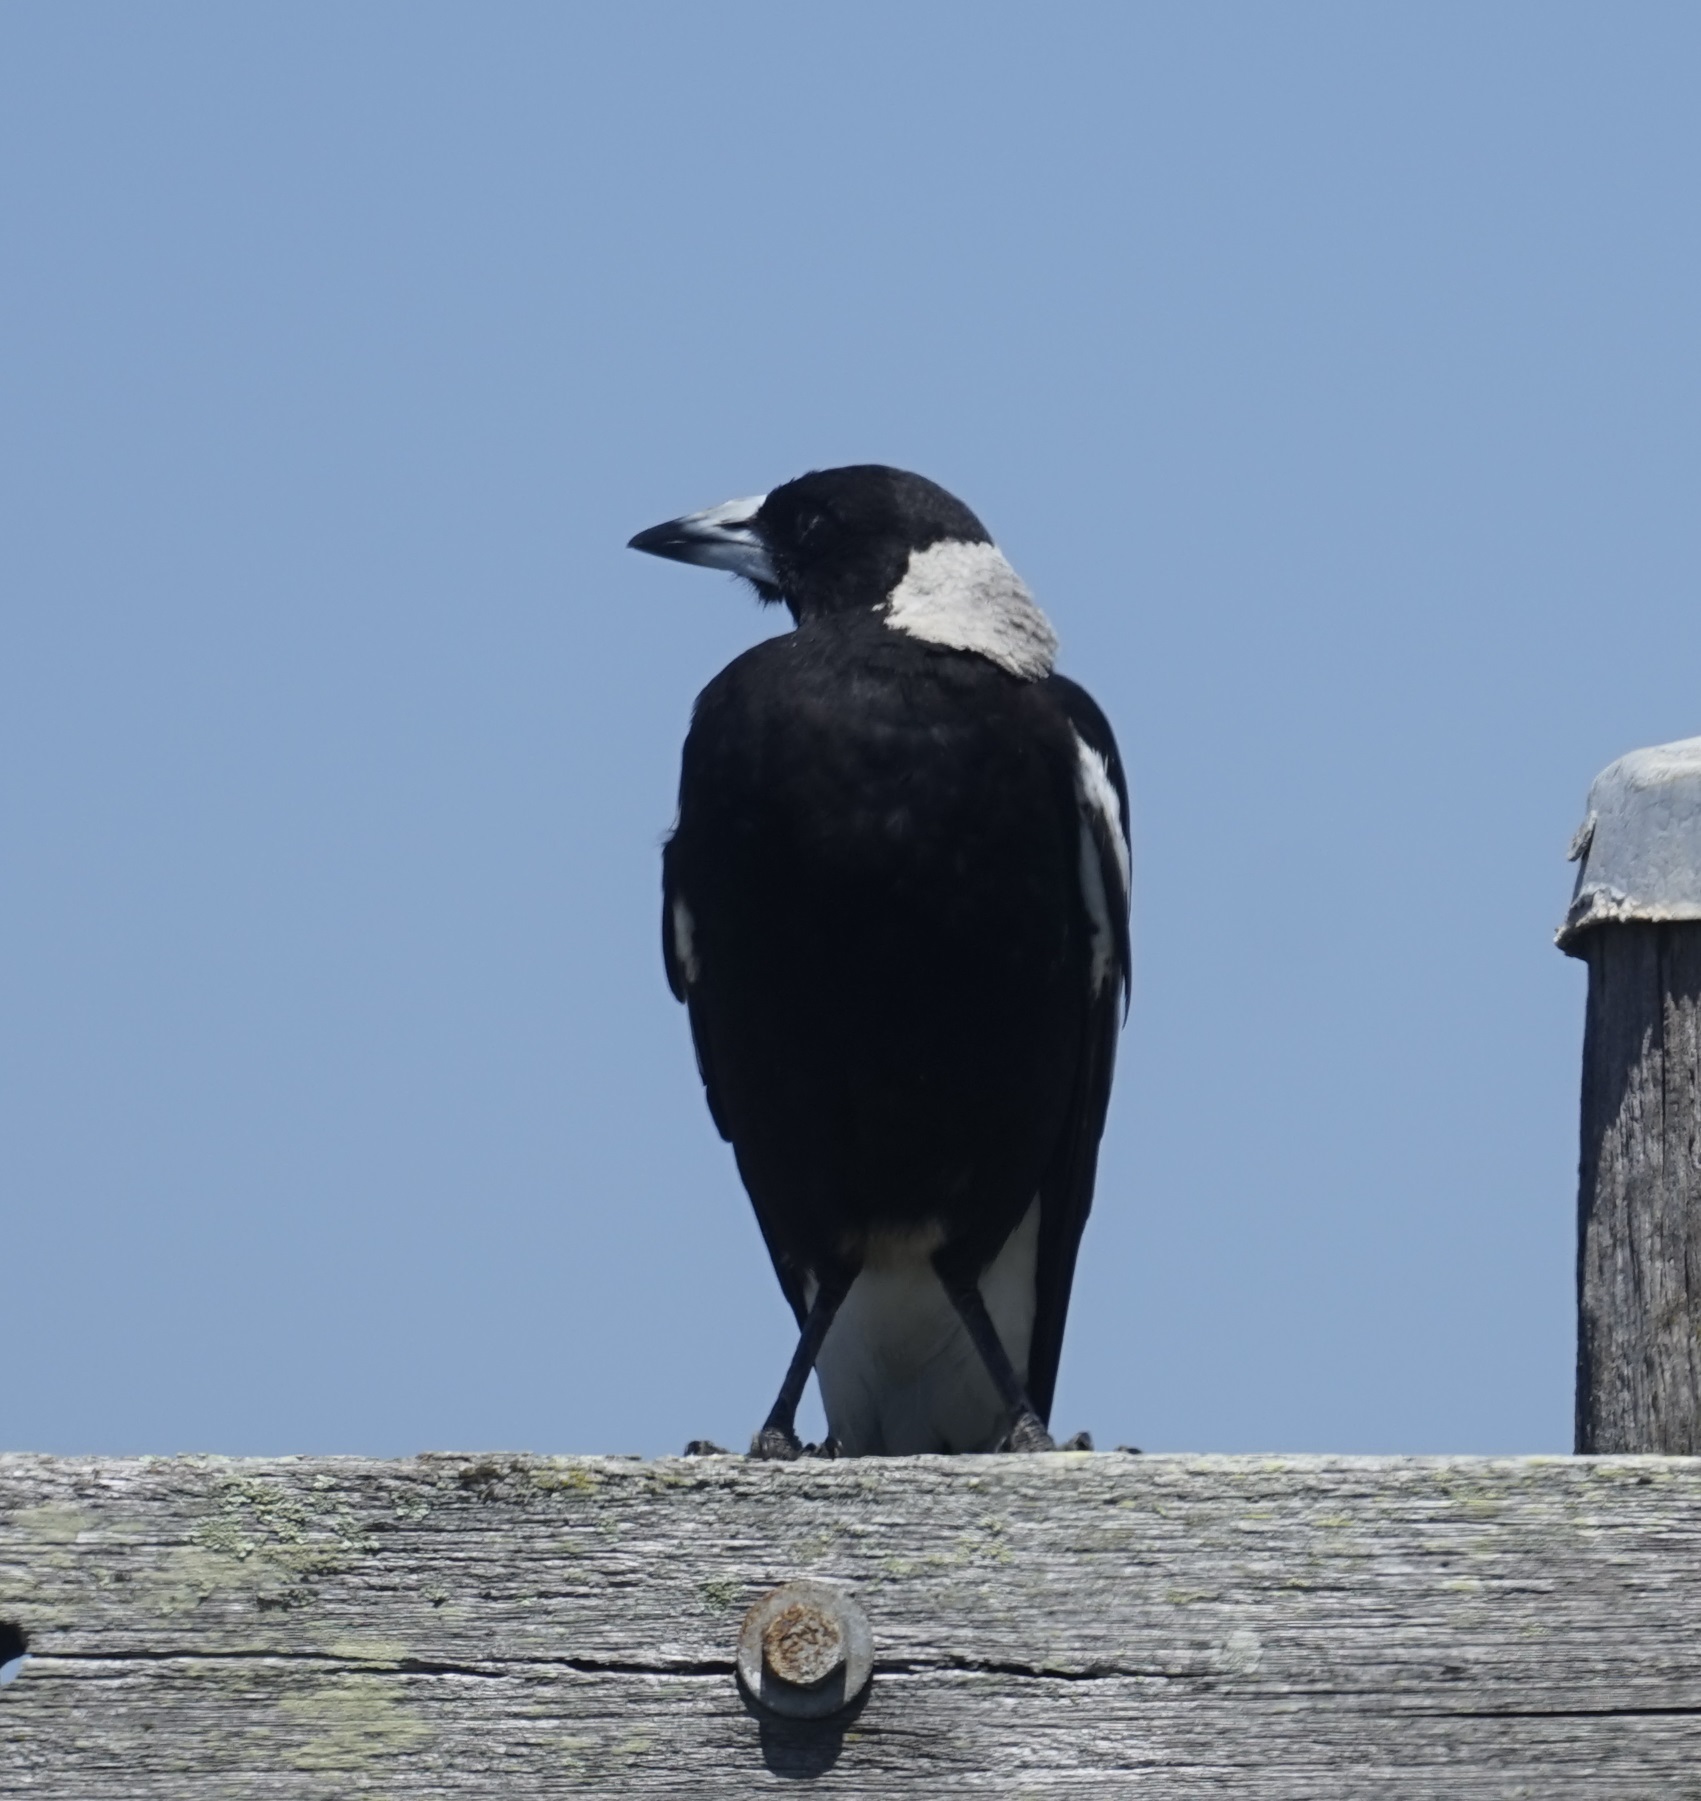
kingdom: Animalia
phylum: Chordata
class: Aves
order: Passeriformes
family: Cracticidae
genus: Gymnorhina
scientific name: Gymnorhina tibicen
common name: Australian magpie
